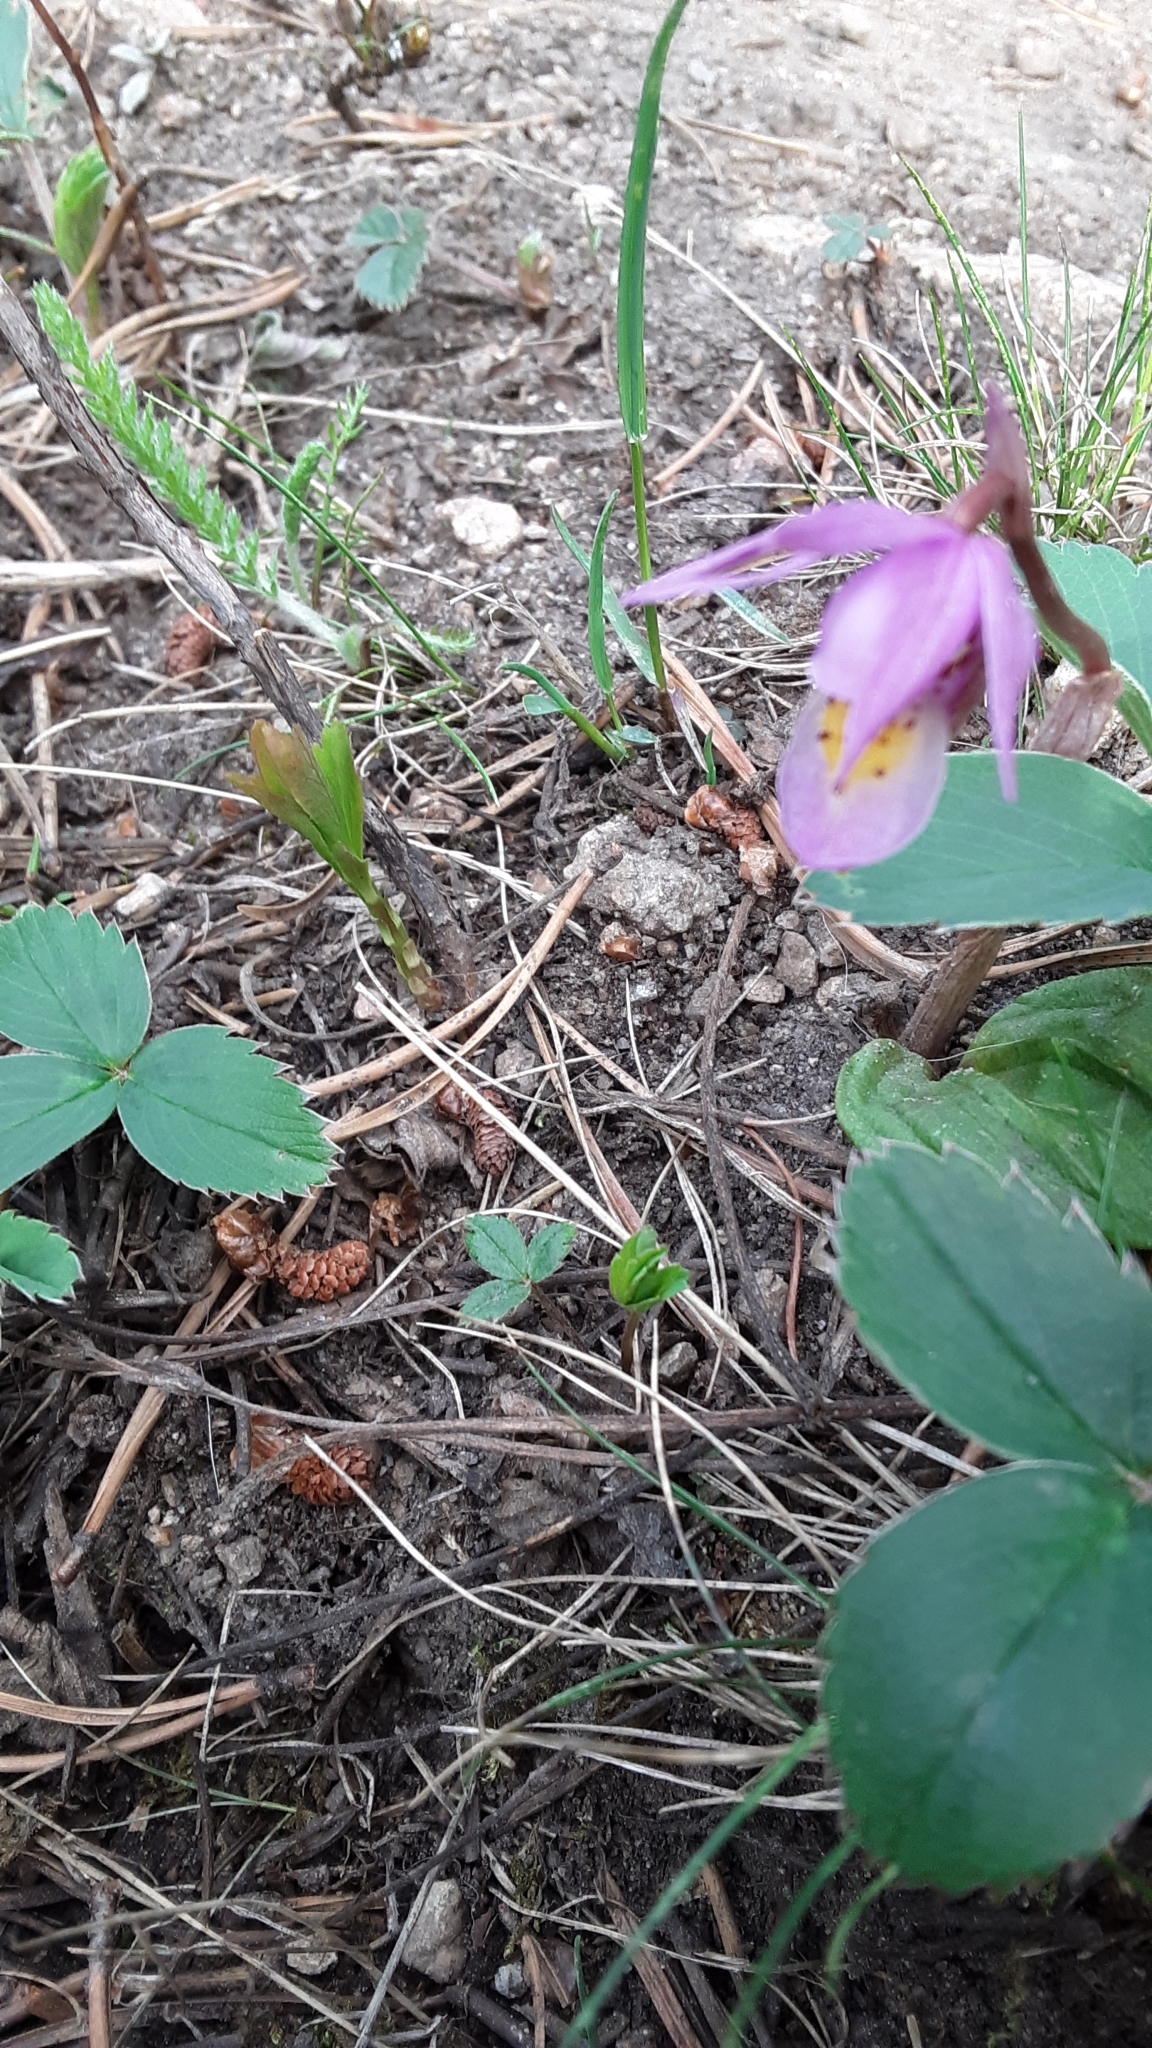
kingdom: Plantae
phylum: Tracheophyta
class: Liliopsida
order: Asparagales
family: Orchidaceae
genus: Calypso
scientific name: Calypso bulbosa
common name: Calypso
